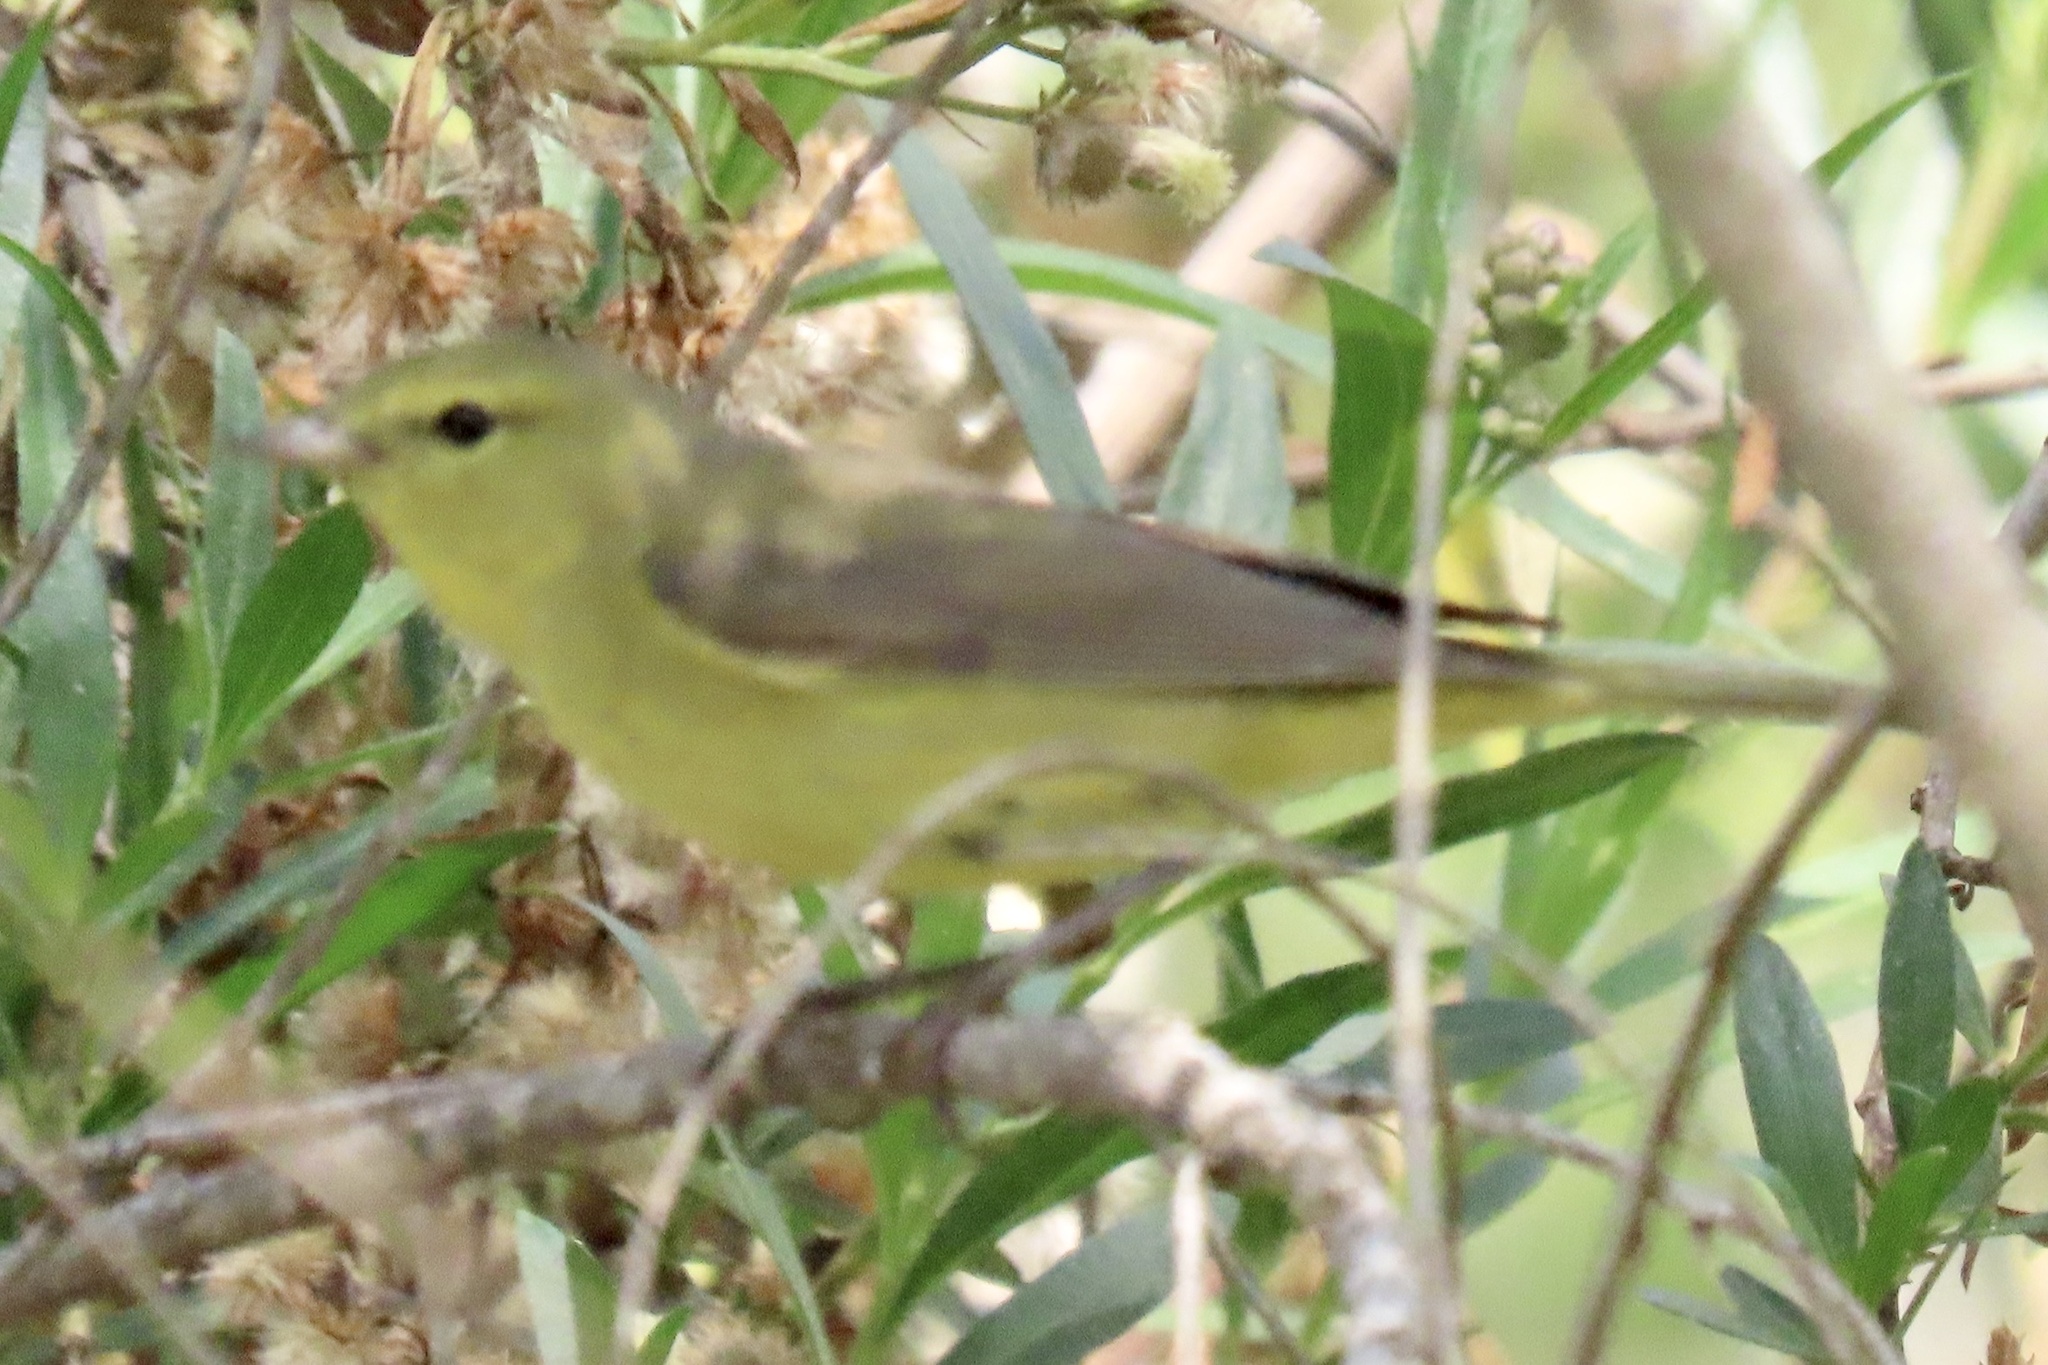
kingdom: Animalia
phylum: Chordata
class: Aves
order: Passeriformes
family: Parulidae
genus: Leiothlypis
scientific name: Leiothlypis celata
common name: Orange-crowned warbler
